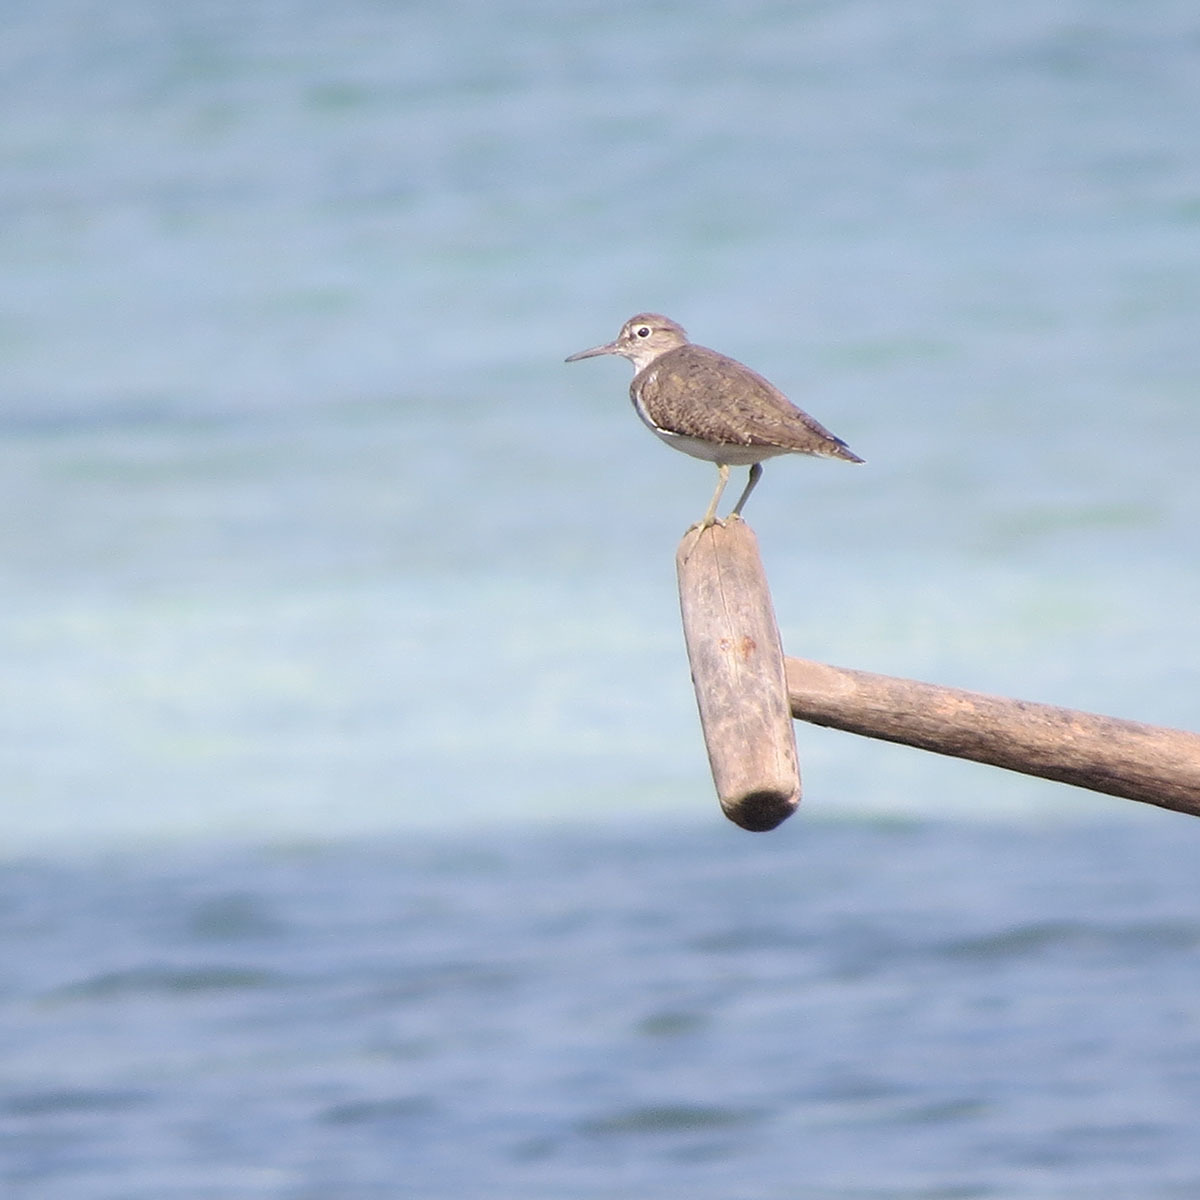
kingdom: Animalia
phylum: Chordata
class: Aves
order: Charadriiformes
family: Scolopacidae
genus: Actitis
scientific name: Actitis hypoleucos
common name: Common sandpiper
